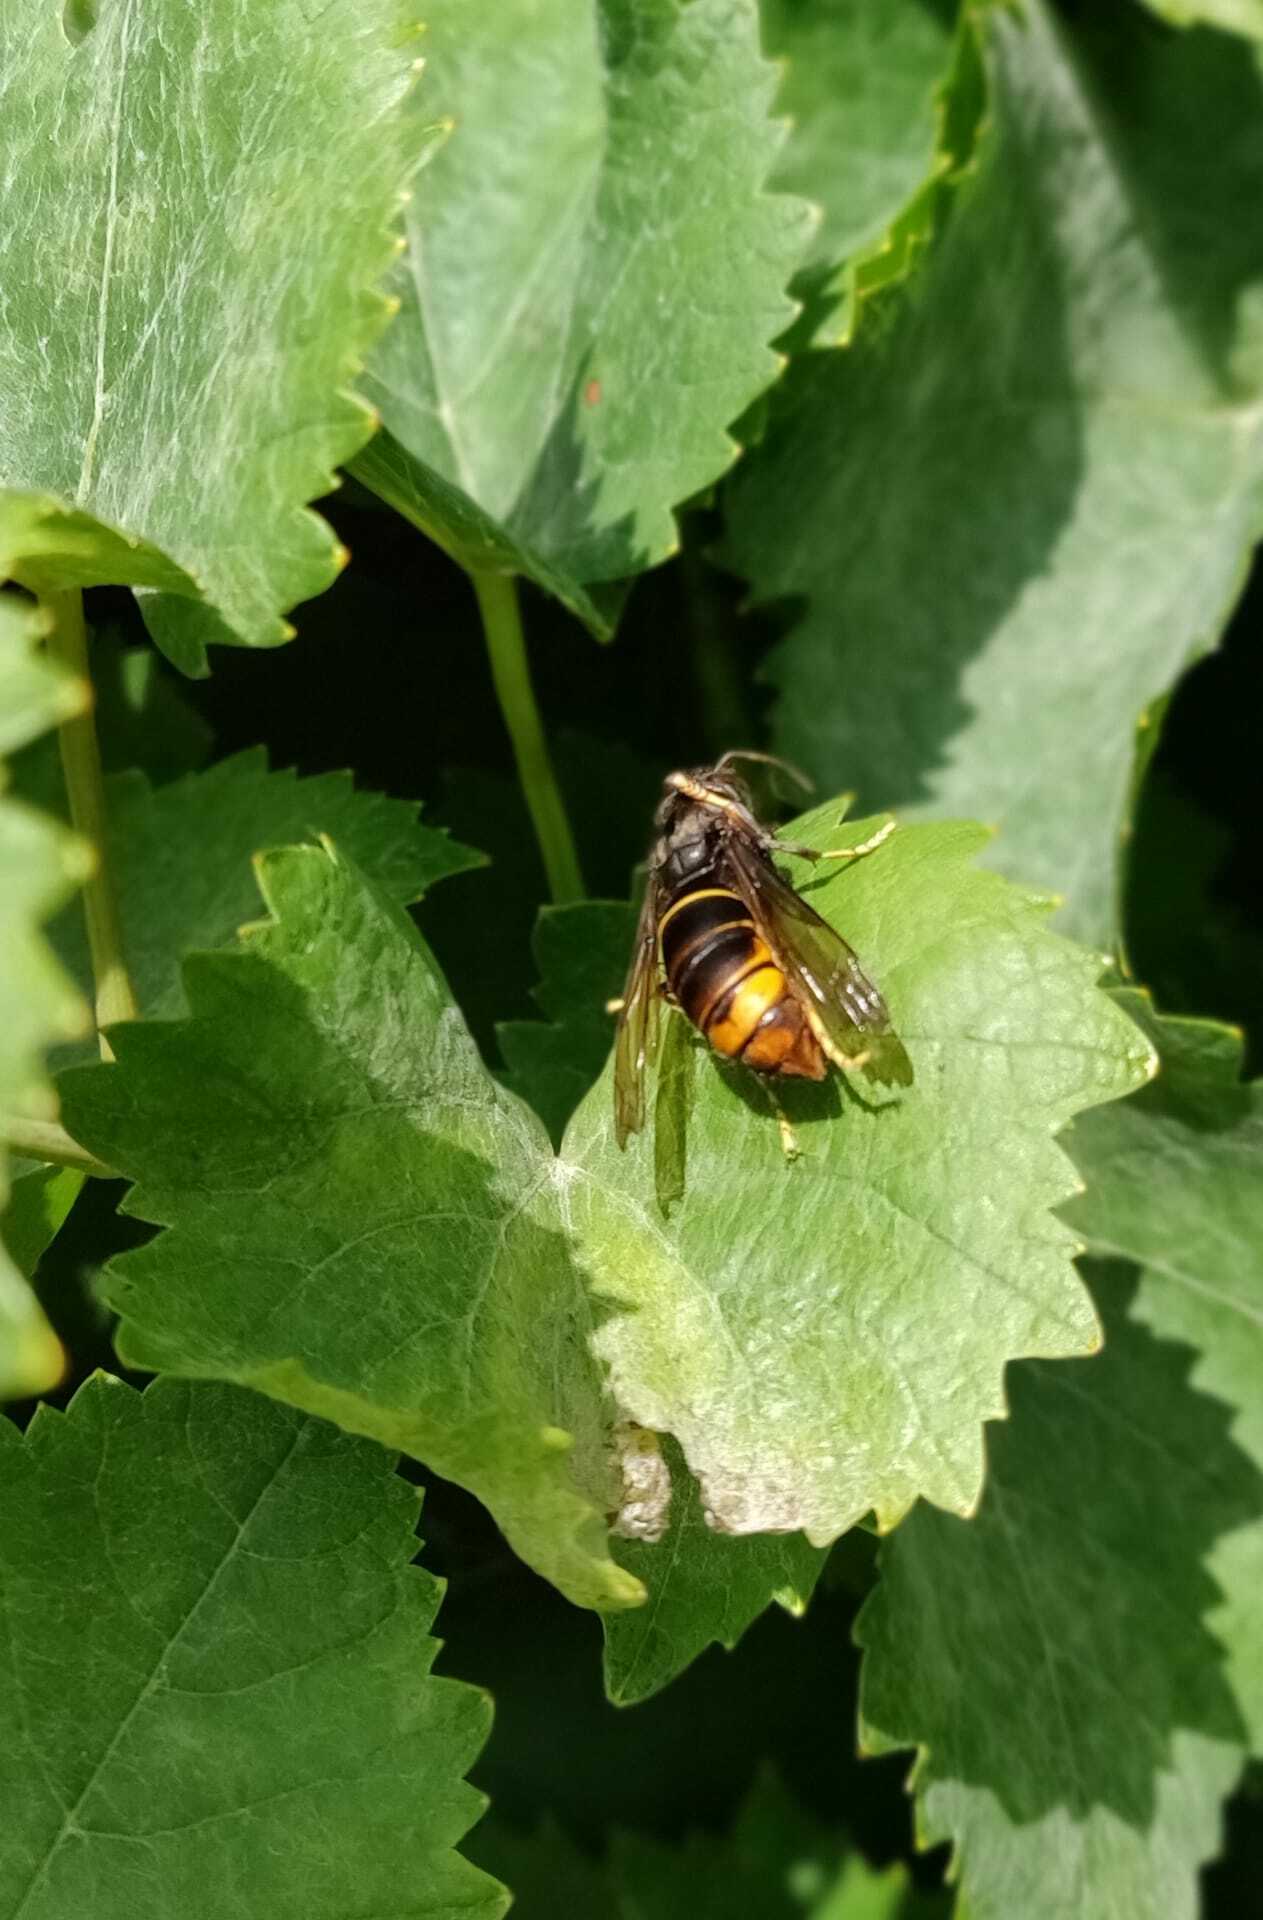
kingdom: Animalia
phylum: Arthropoda
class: Insecta
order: Hymenoptera
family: Vespidae
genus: Vespa
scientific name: Vespa velutina
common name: Asian hornet
